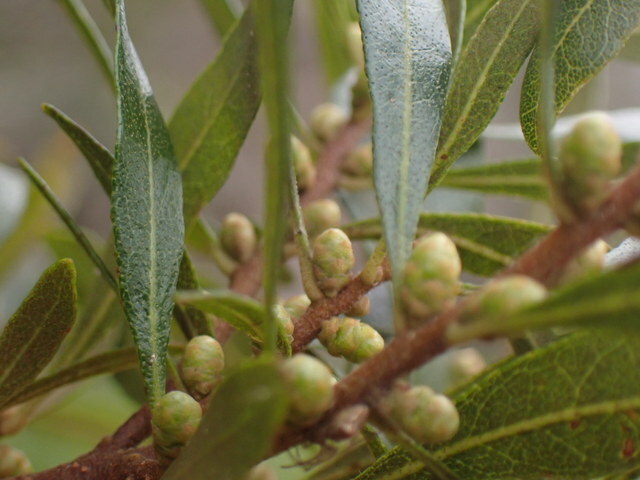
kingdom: Plantae
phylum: Tracheophyta
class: Magnoliopsida
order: Fagales
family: Myricaceae
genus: Morella
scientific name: Morella cerifera
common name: Wax myrtle
